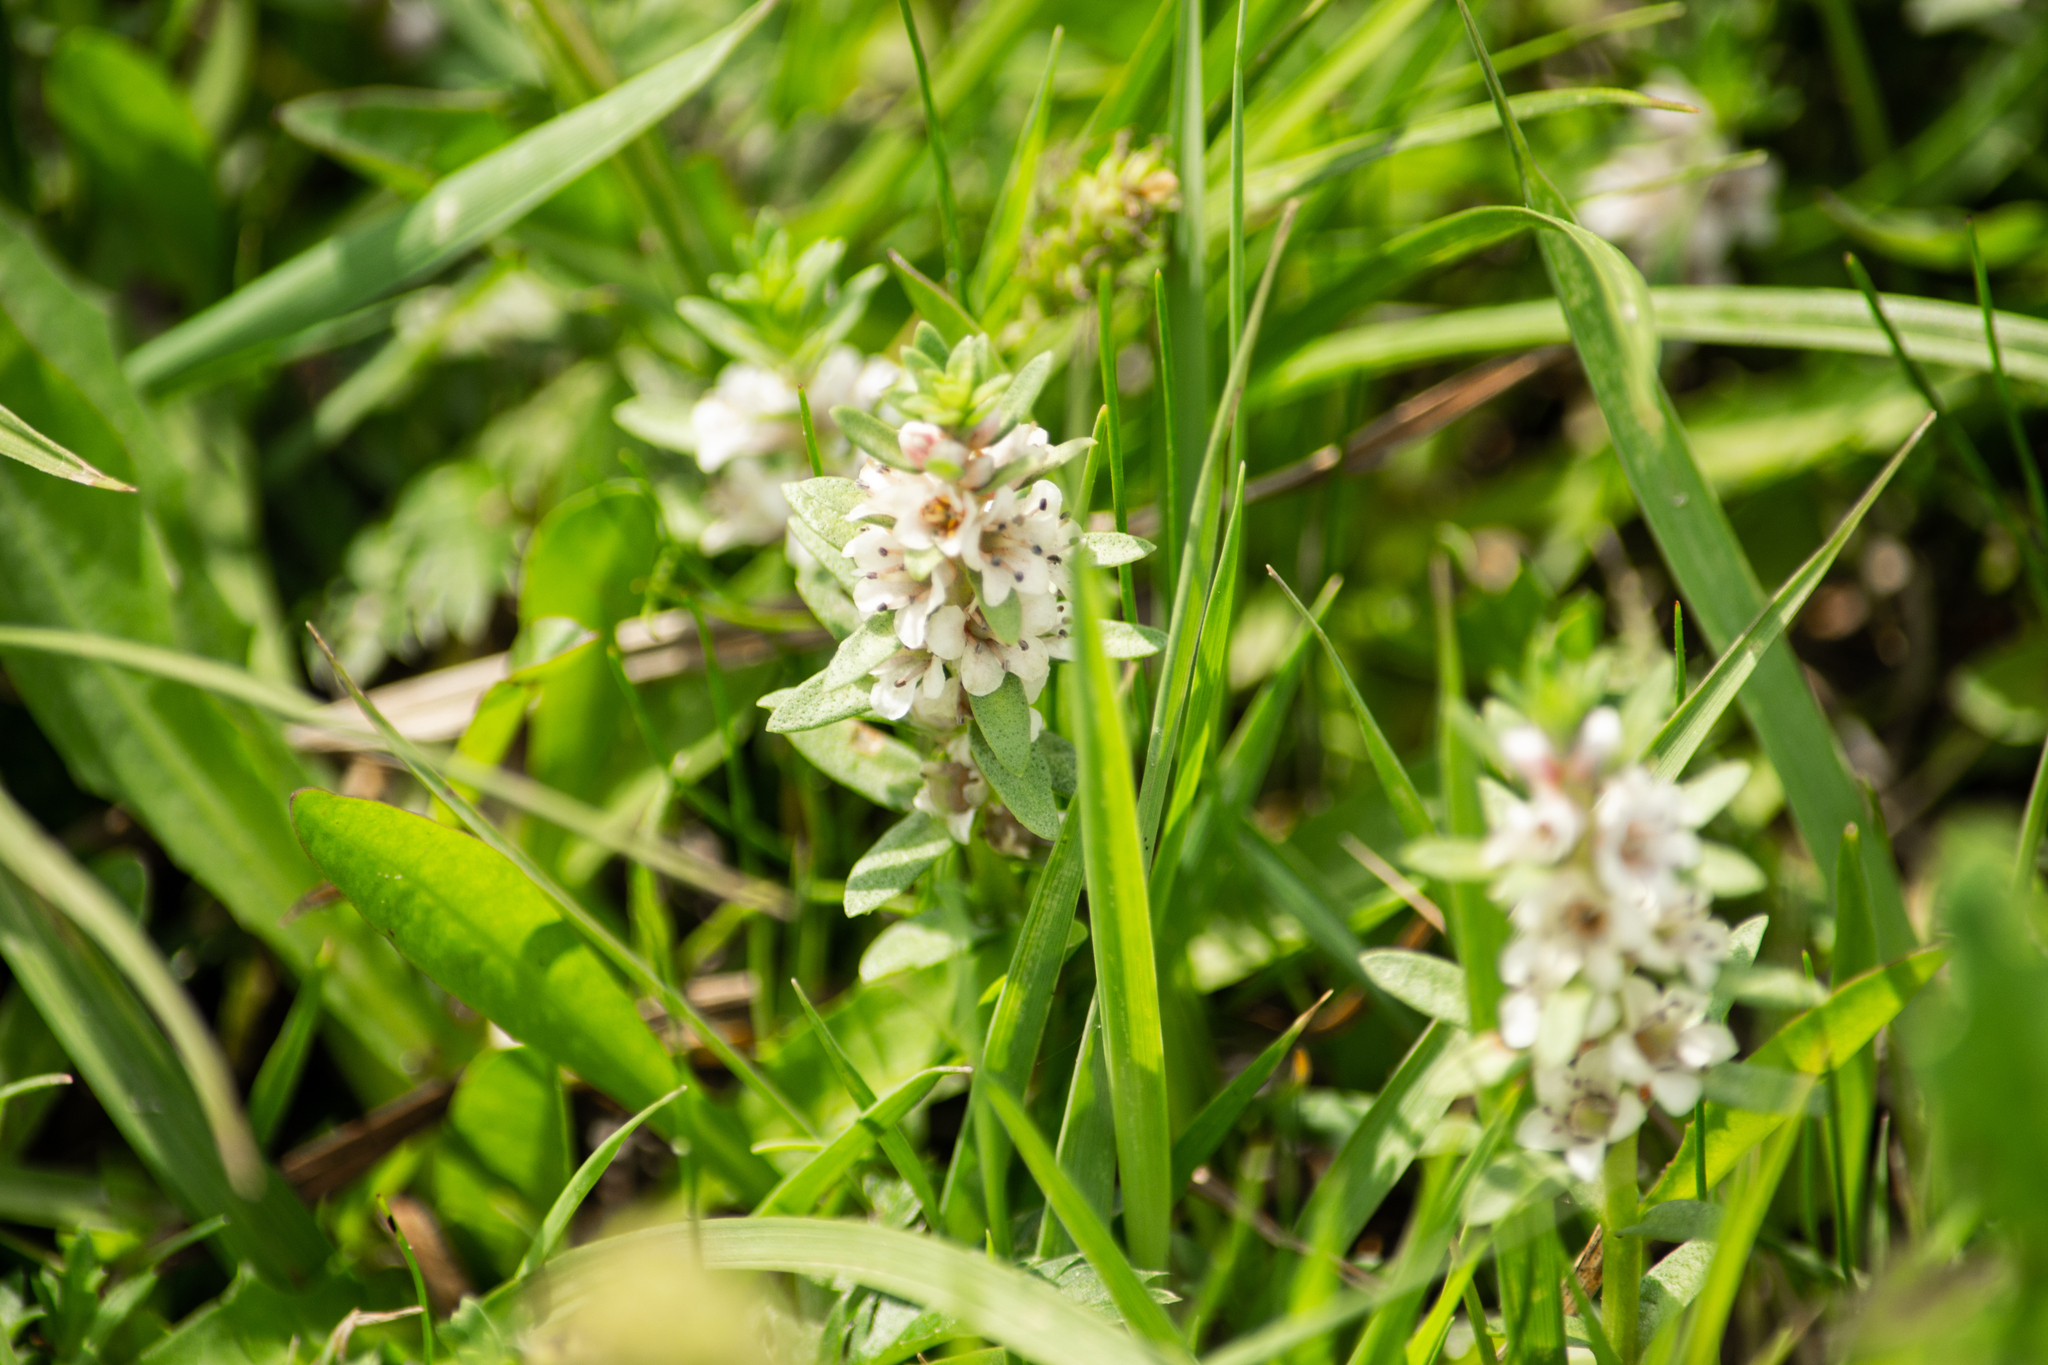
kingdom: Plantae
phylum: Tracheophyta
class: Magnoliopsida
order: Ericales
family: Primulaceae
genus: Lysimachia
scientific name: Lysimachia maritima
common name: Sea milkwort
